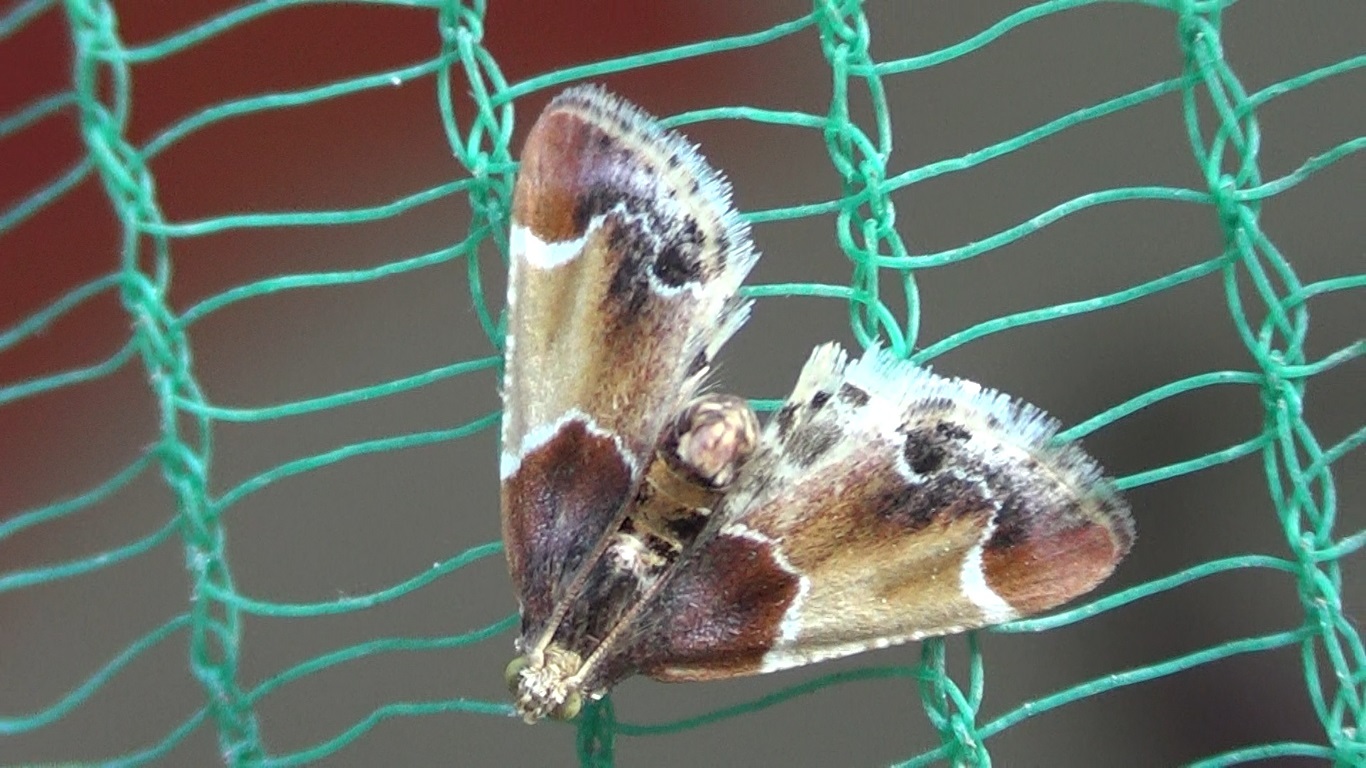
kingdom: Animalia
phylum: Arthropoda
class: Insecta
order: Lepidoptera
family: Pyralidae
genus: Pyralis
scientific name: Pyralis farinalis
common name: Meal moth
